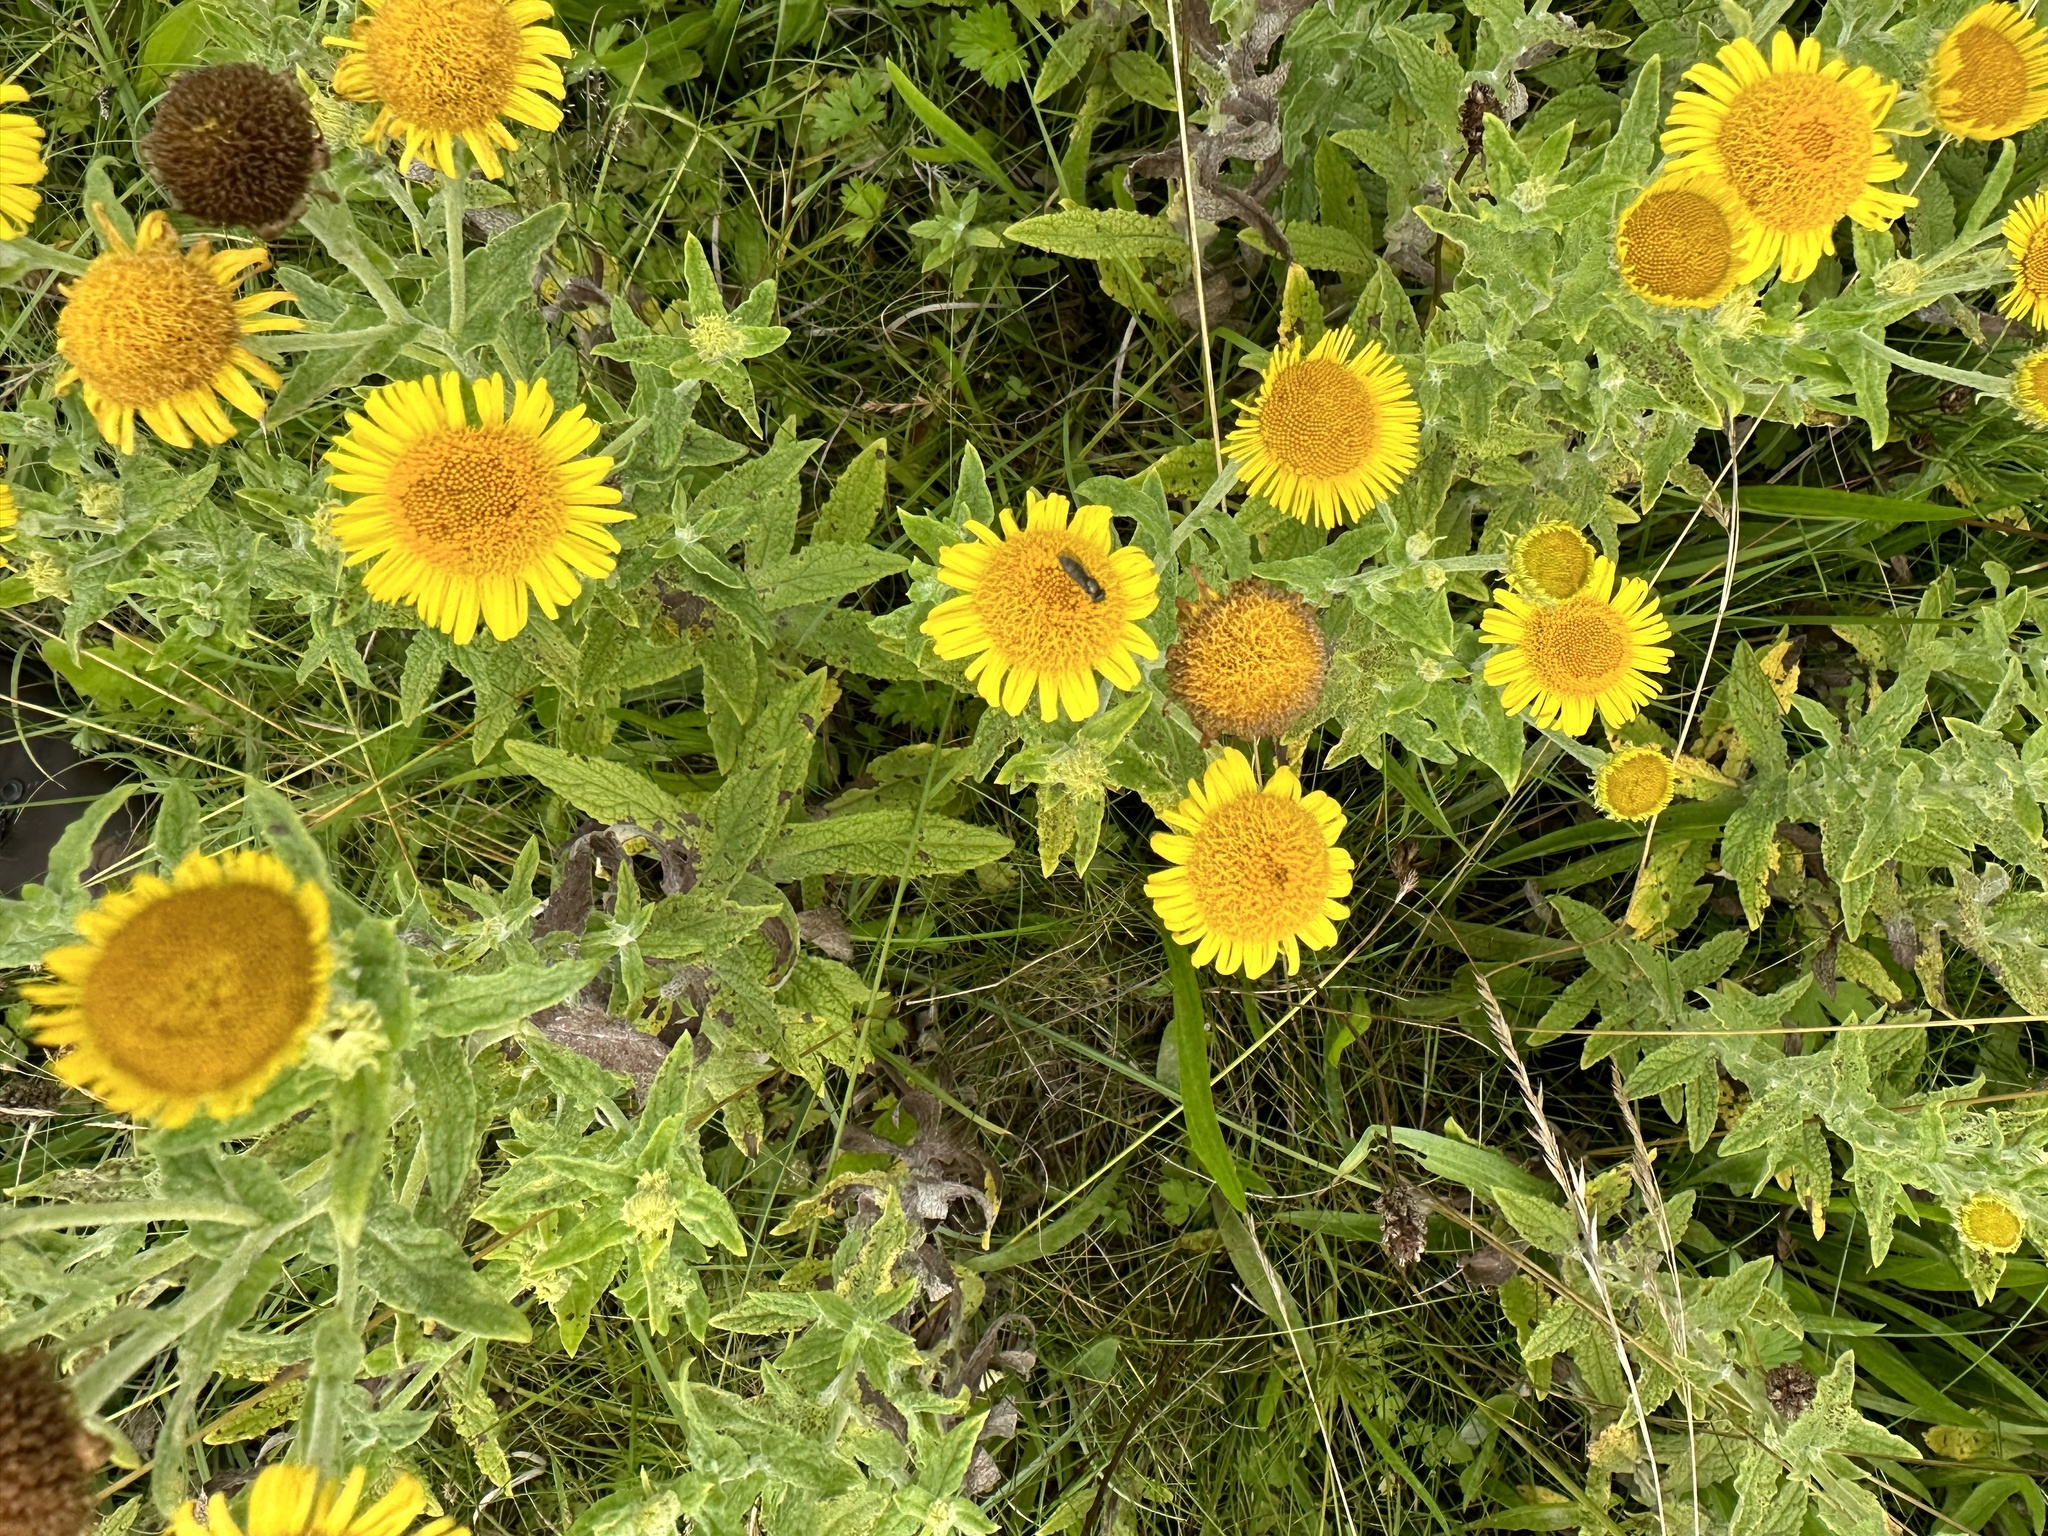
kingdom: Plantae
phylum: Tracheophyta
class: Magnoliopsida
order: Asterales
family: Asteraceae
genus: Pulicaria
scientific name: Pulicaria dysenterica
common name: Common fleabane
